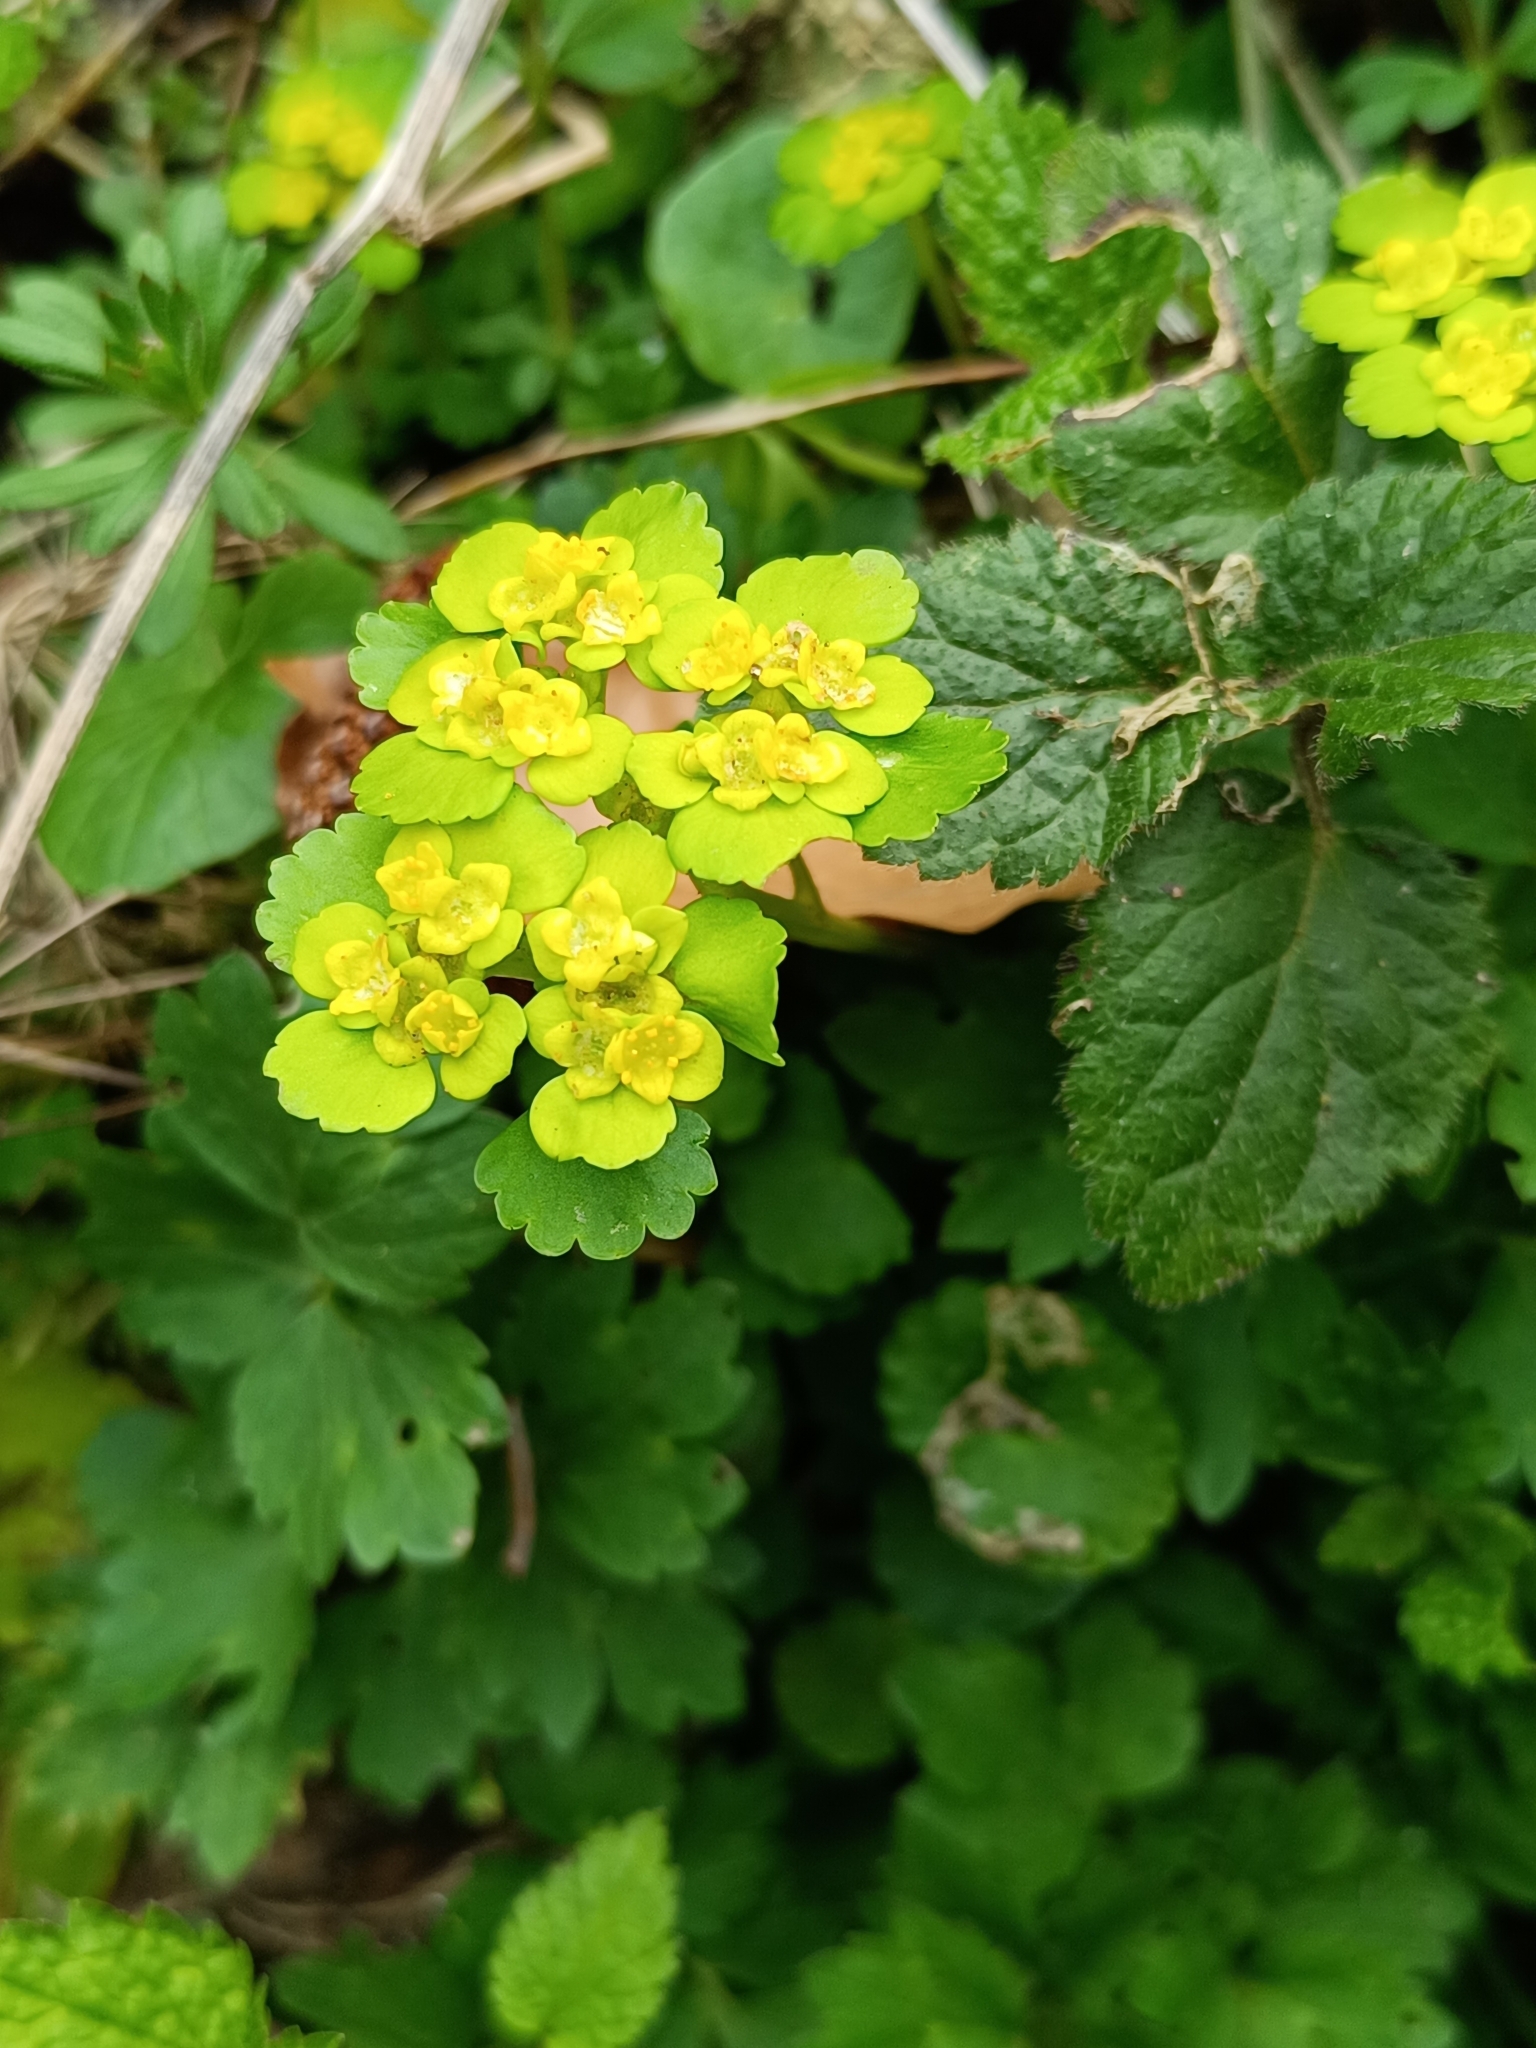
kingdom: Plantae
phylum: Tracheophyta
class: Magnoliopsida
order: Saxifragales
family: Saxifragaceae
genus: Chrysosplenium
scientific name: Chrysosplenium alternifolium
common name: Alternate-leaved golden-saxifrage
